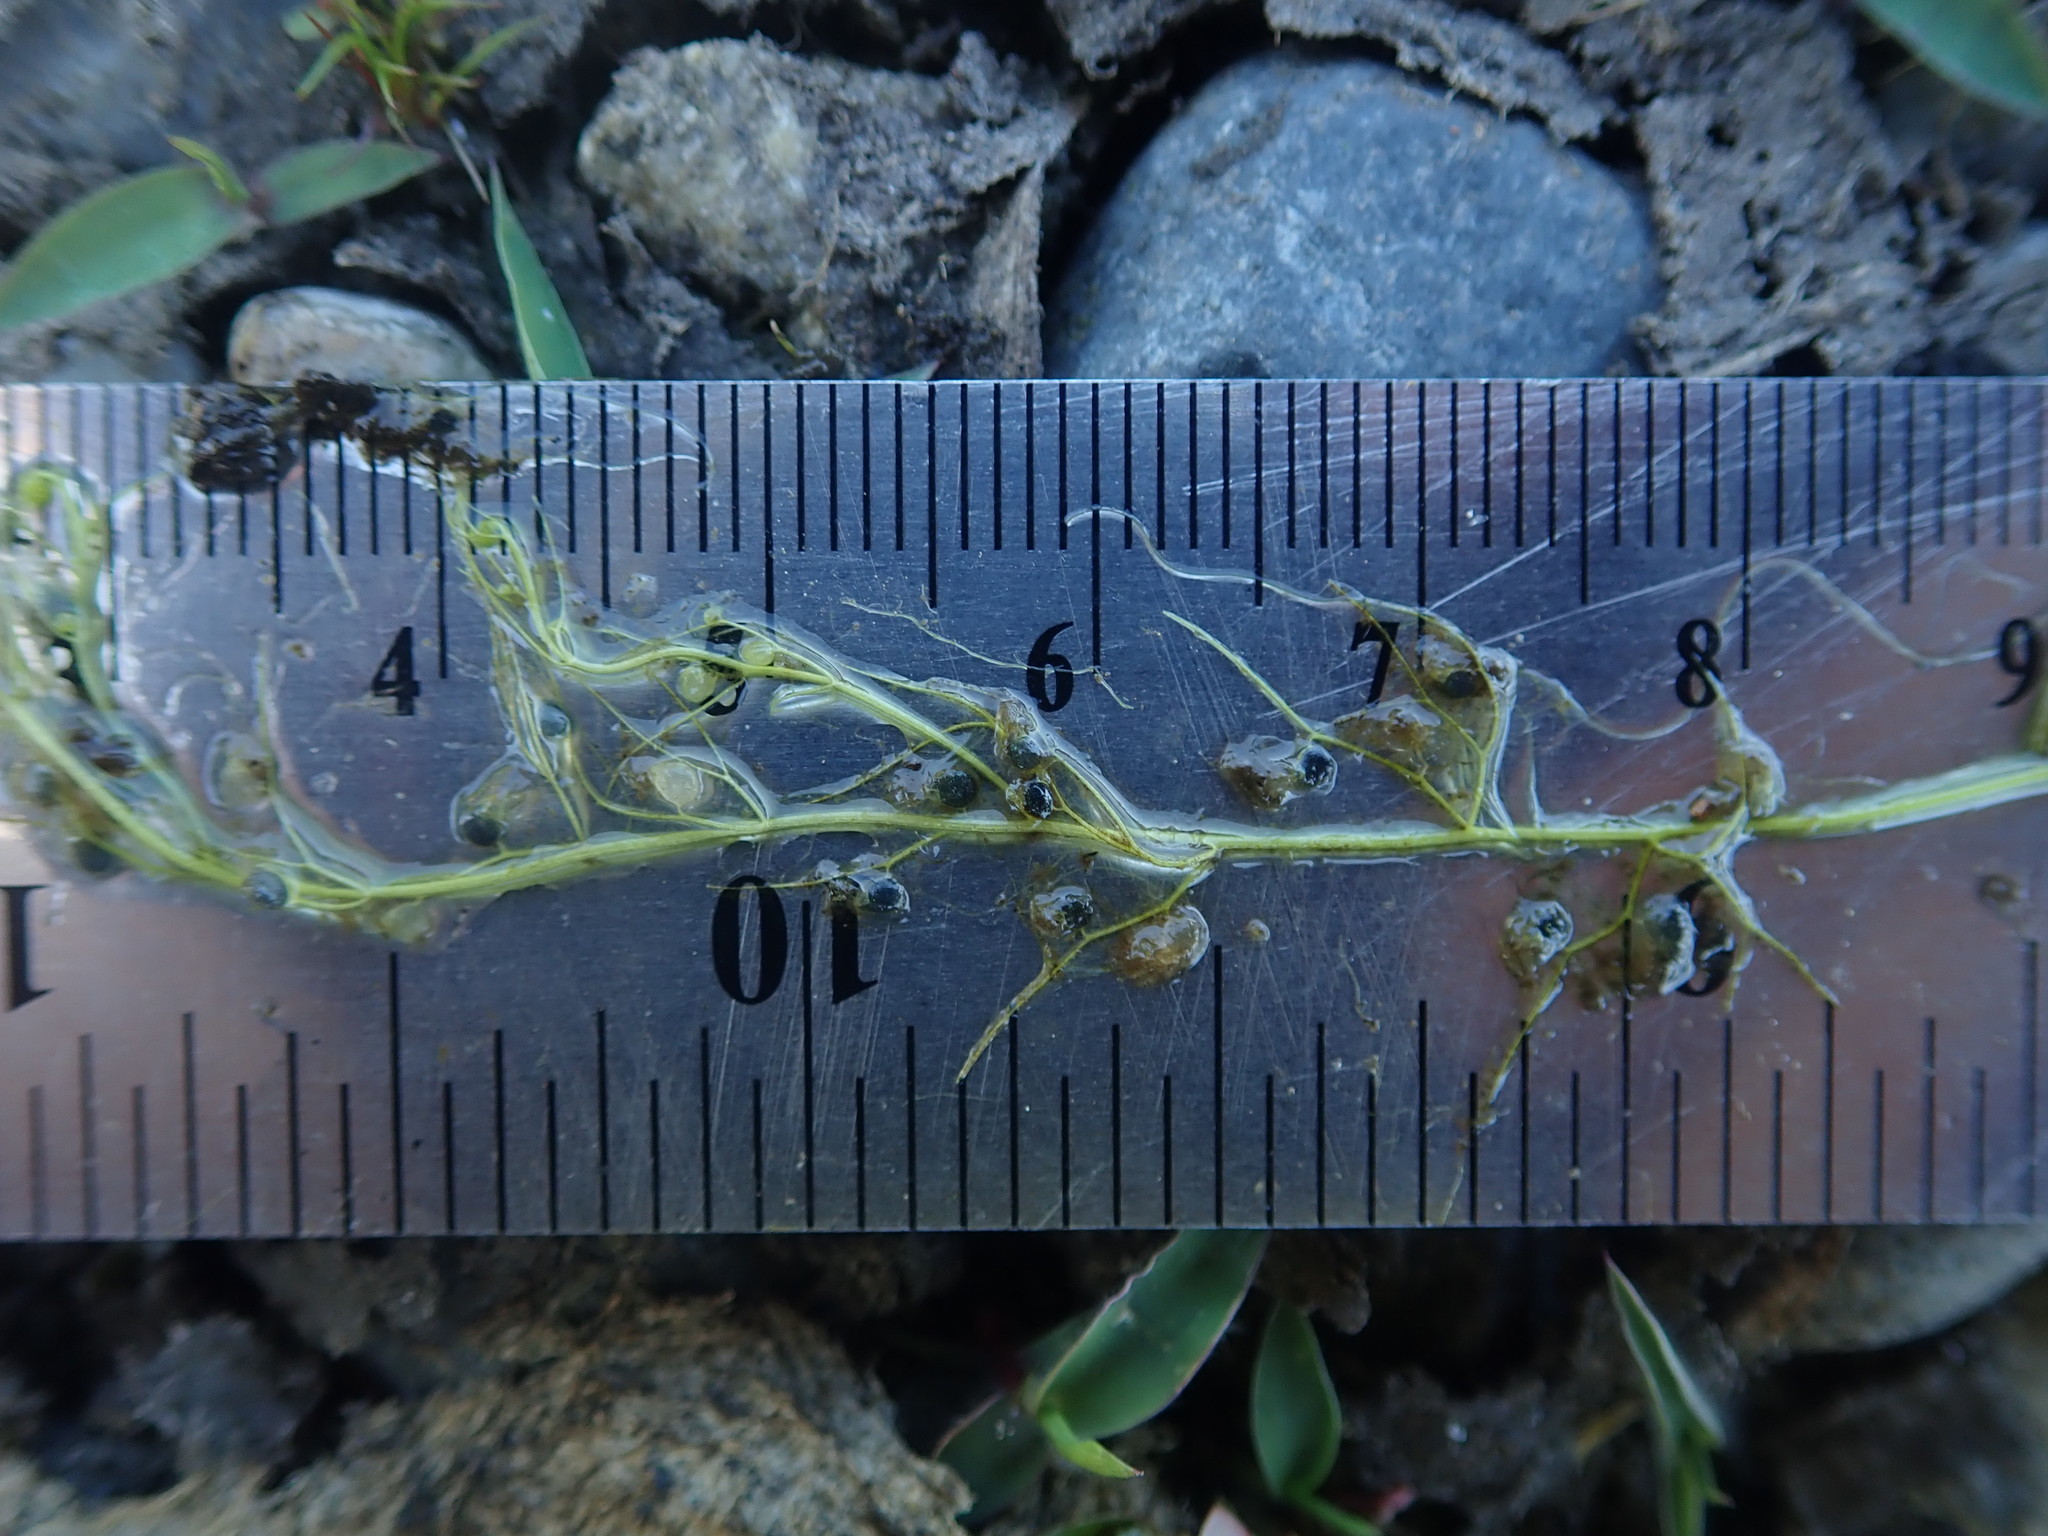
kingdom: Plantae
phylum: Tracheophyta
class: Magnoliopsida
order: Lamiales
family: Lentibulariaceae
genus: Utricularia
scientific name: Utricularia gibba
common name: Humped bladderwort
